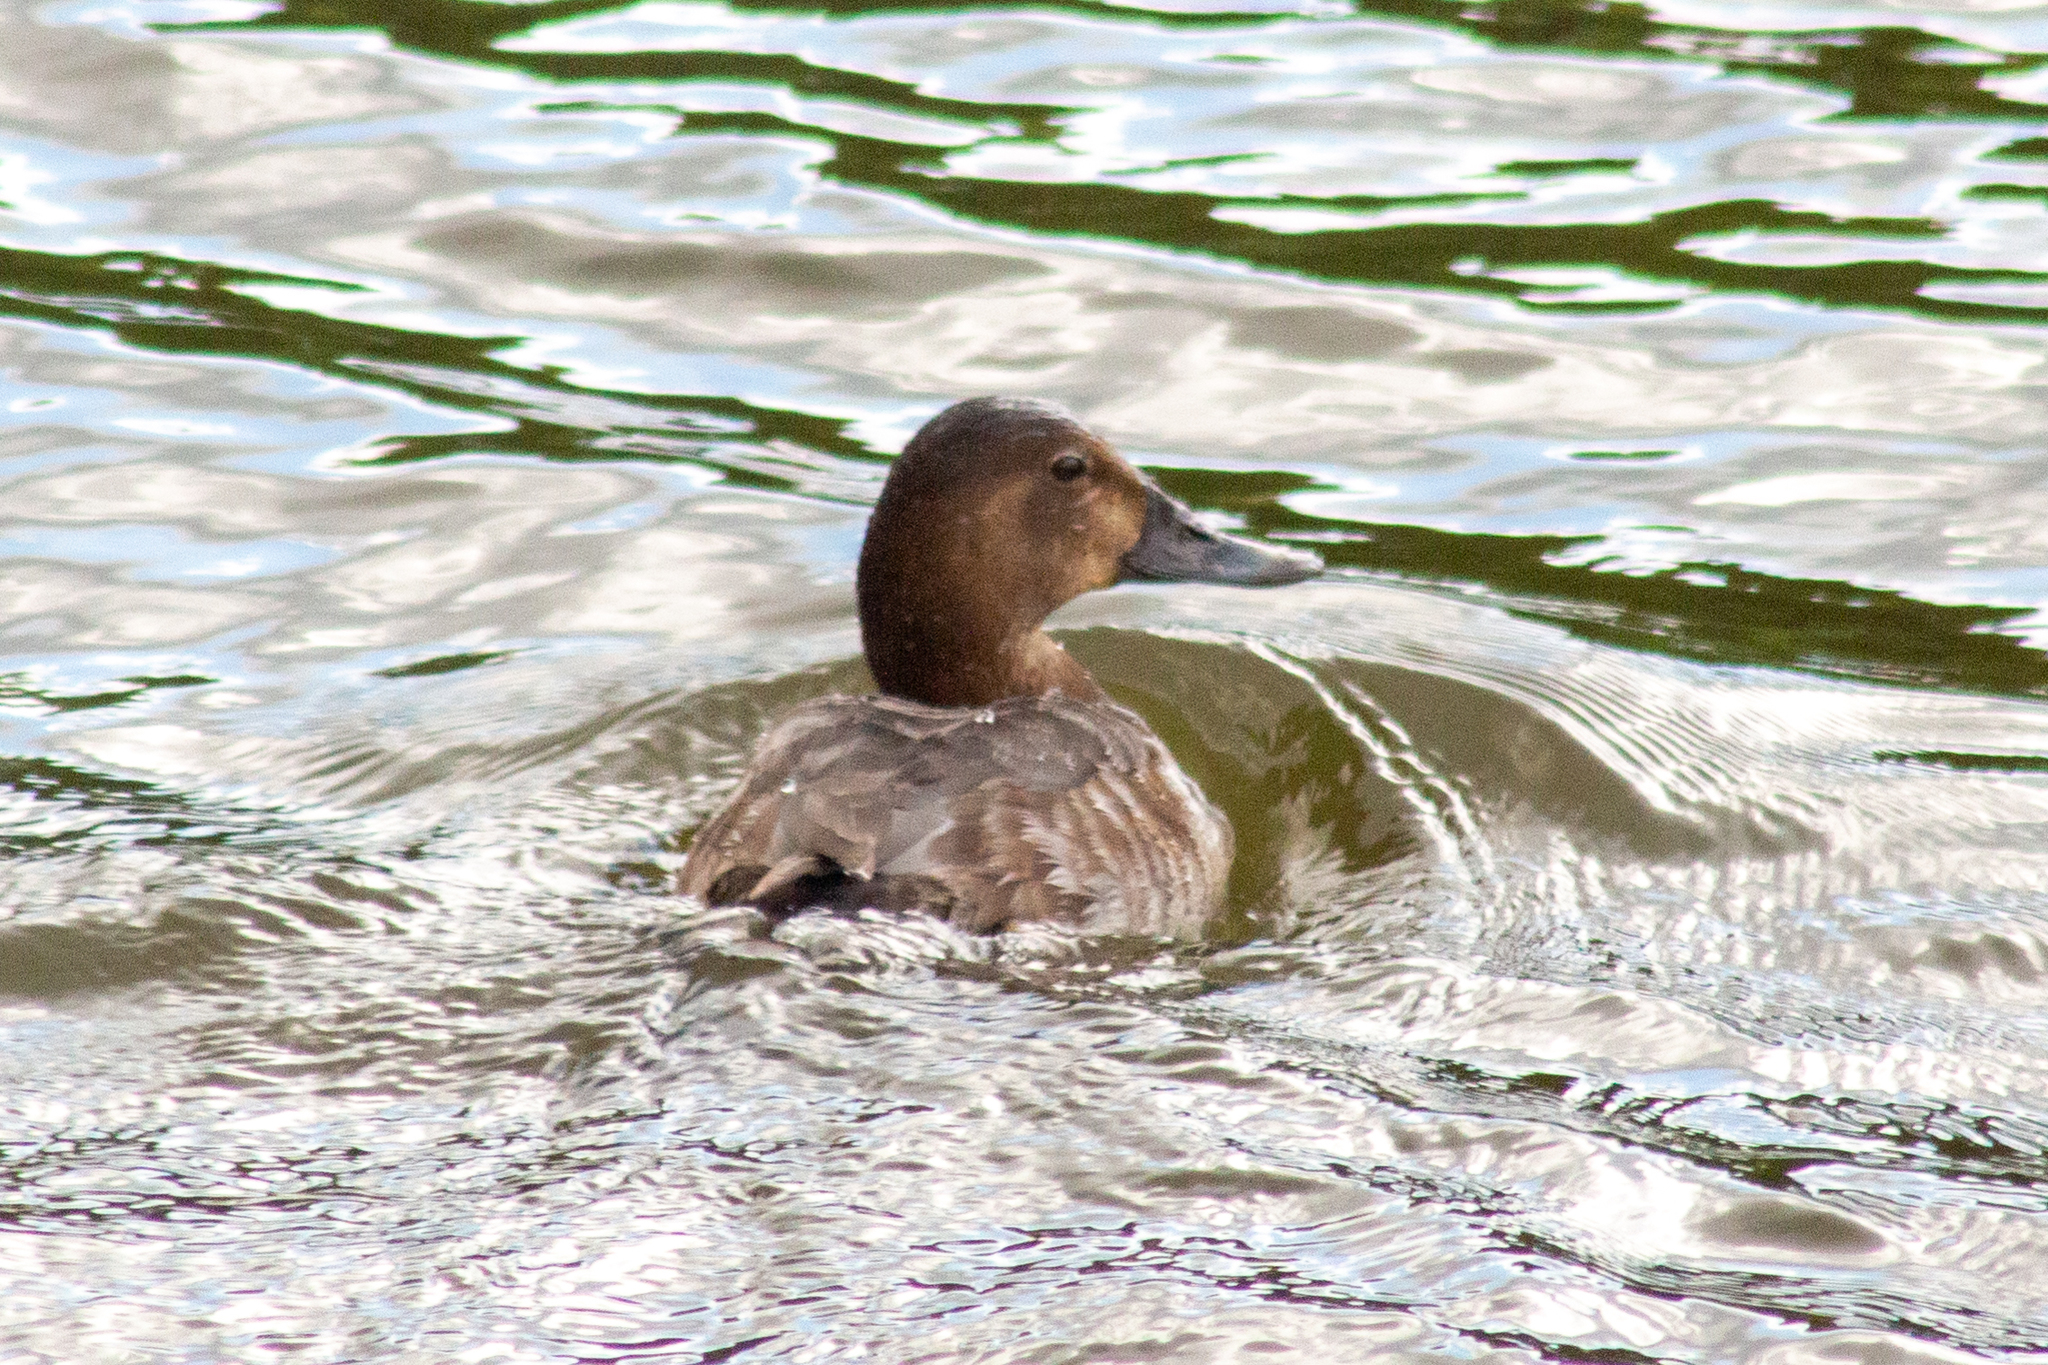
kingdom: Animalia
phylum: Chordata
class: Aves
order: Anseriformes
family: Anatidae
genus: Aythya
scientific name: Aythya ferina
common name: Common pochard
